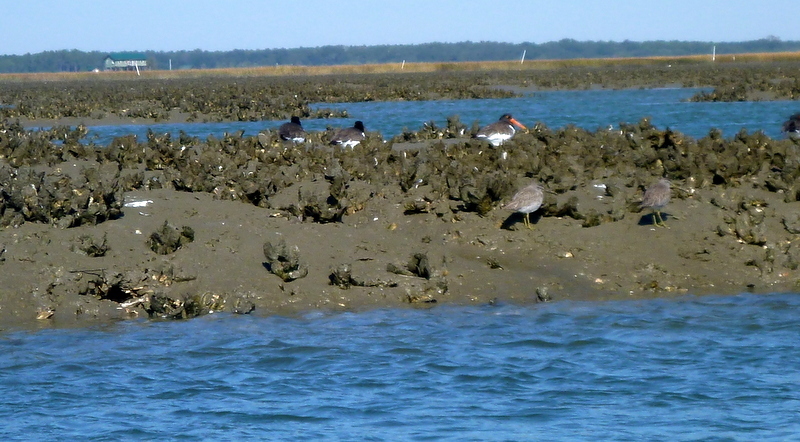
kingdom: Animalia
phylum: Chordata
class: Aves
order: Charadriiformes
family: Haematopodidae
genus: Haematopus
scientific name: Haematopus palliatus
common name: American oystercatcher
